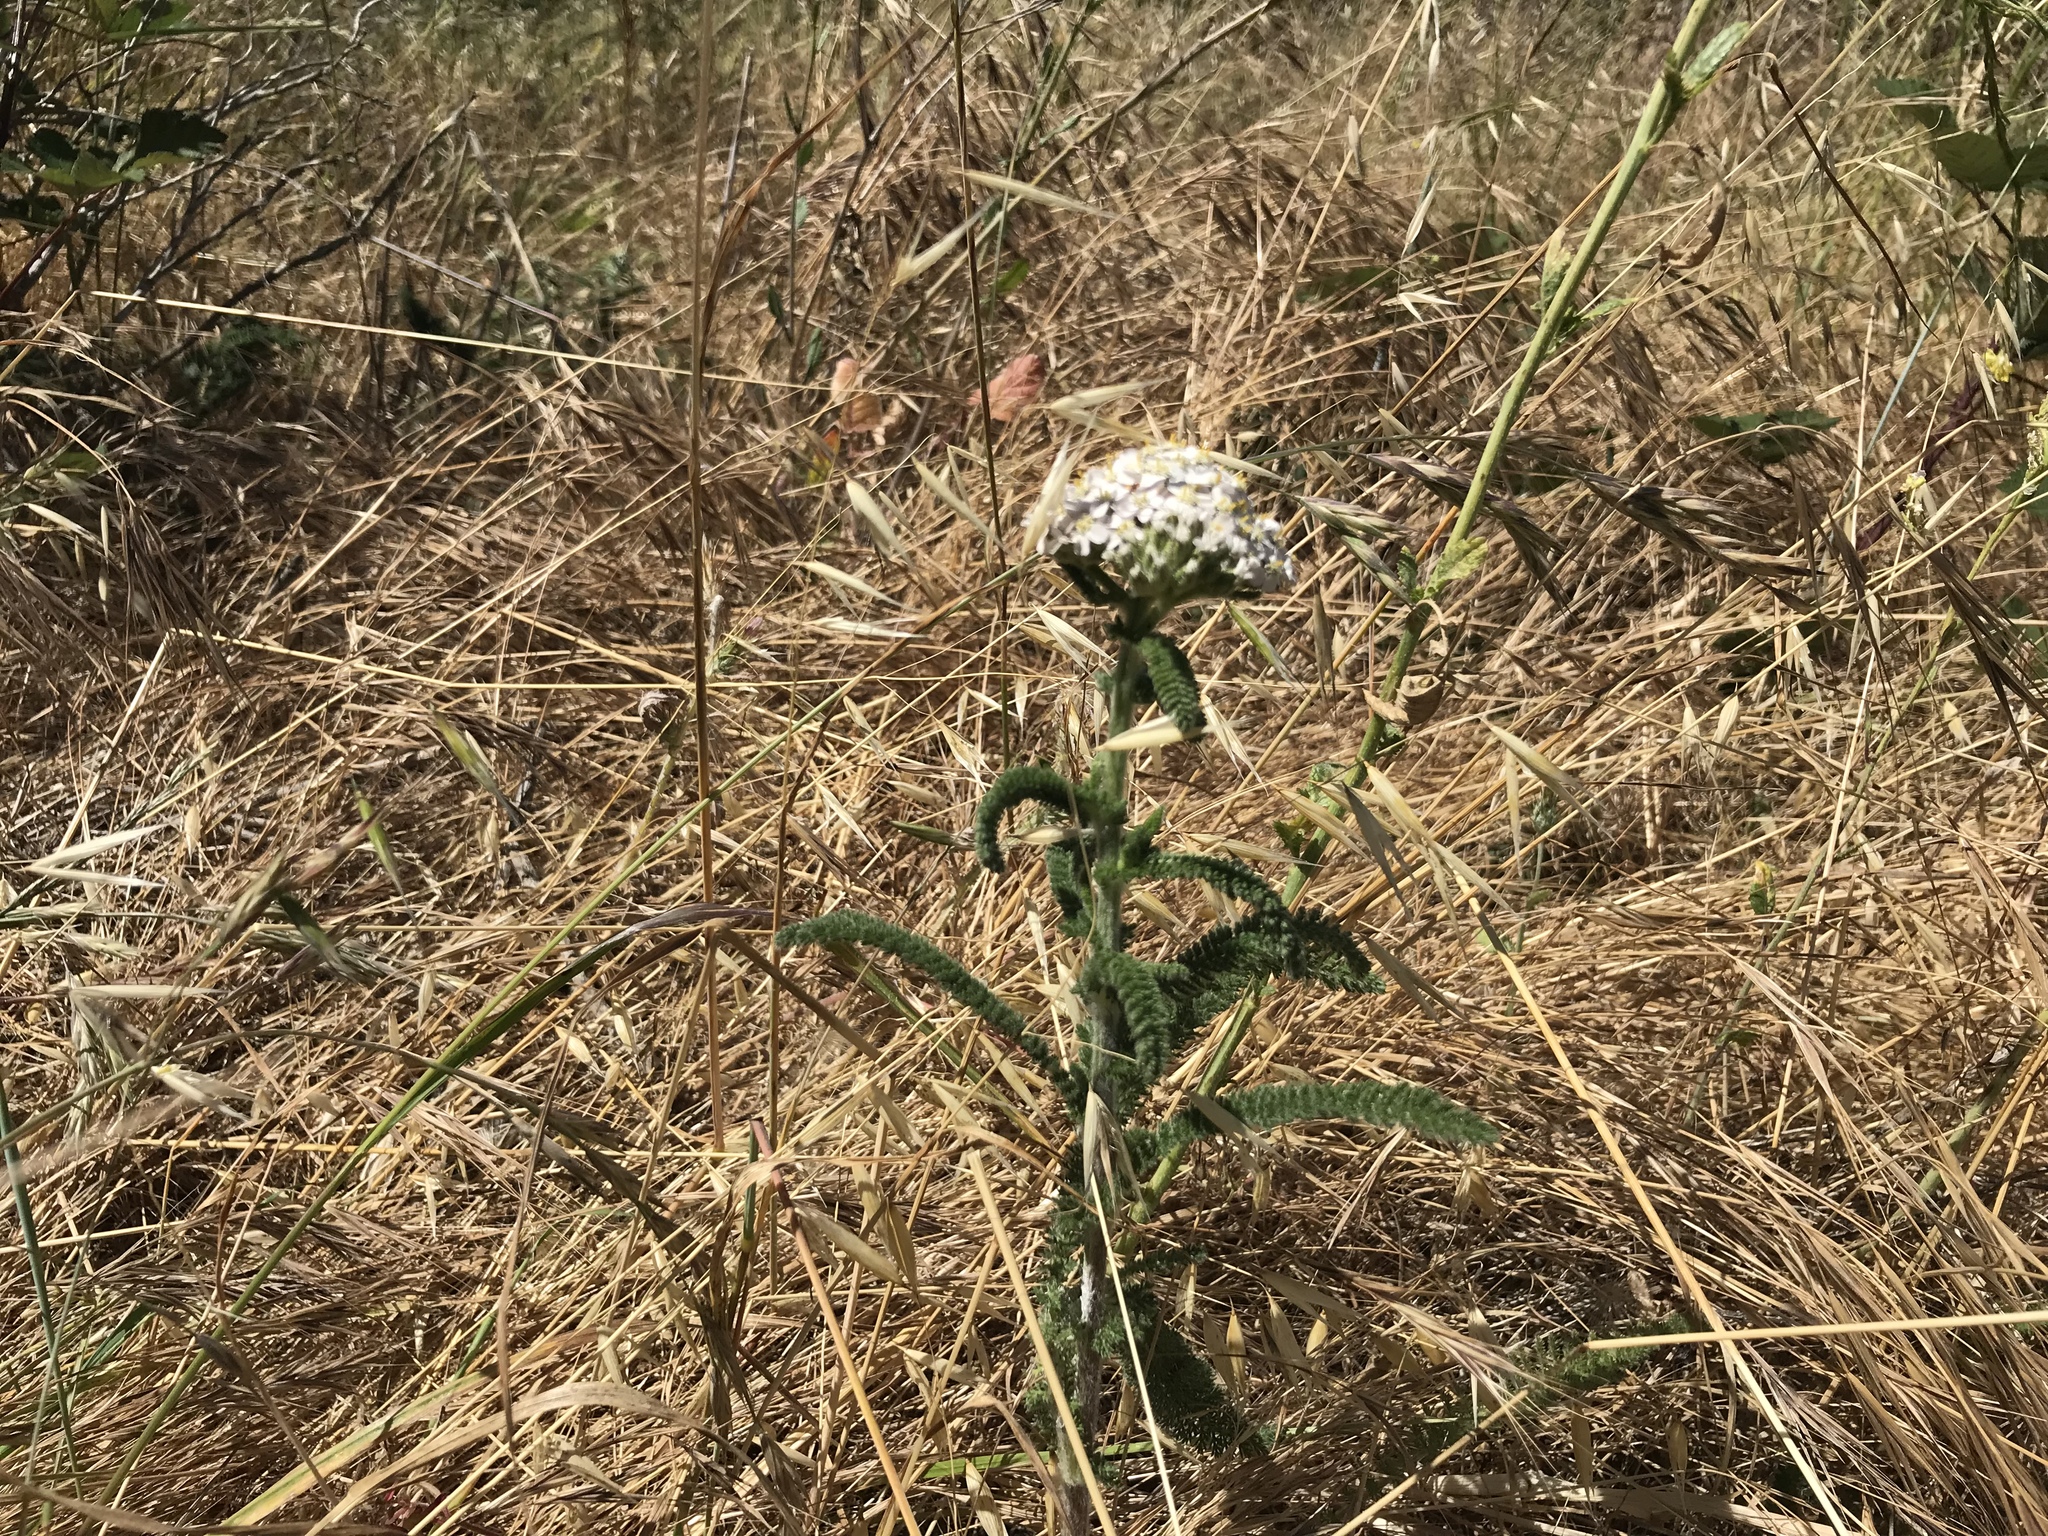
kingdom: Plantae
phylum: Tracheophyta
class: Magnoliopsida
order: Asterales
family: Asteraceae
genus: Achillea
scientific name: Achillea millefolium
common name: Yarrow
